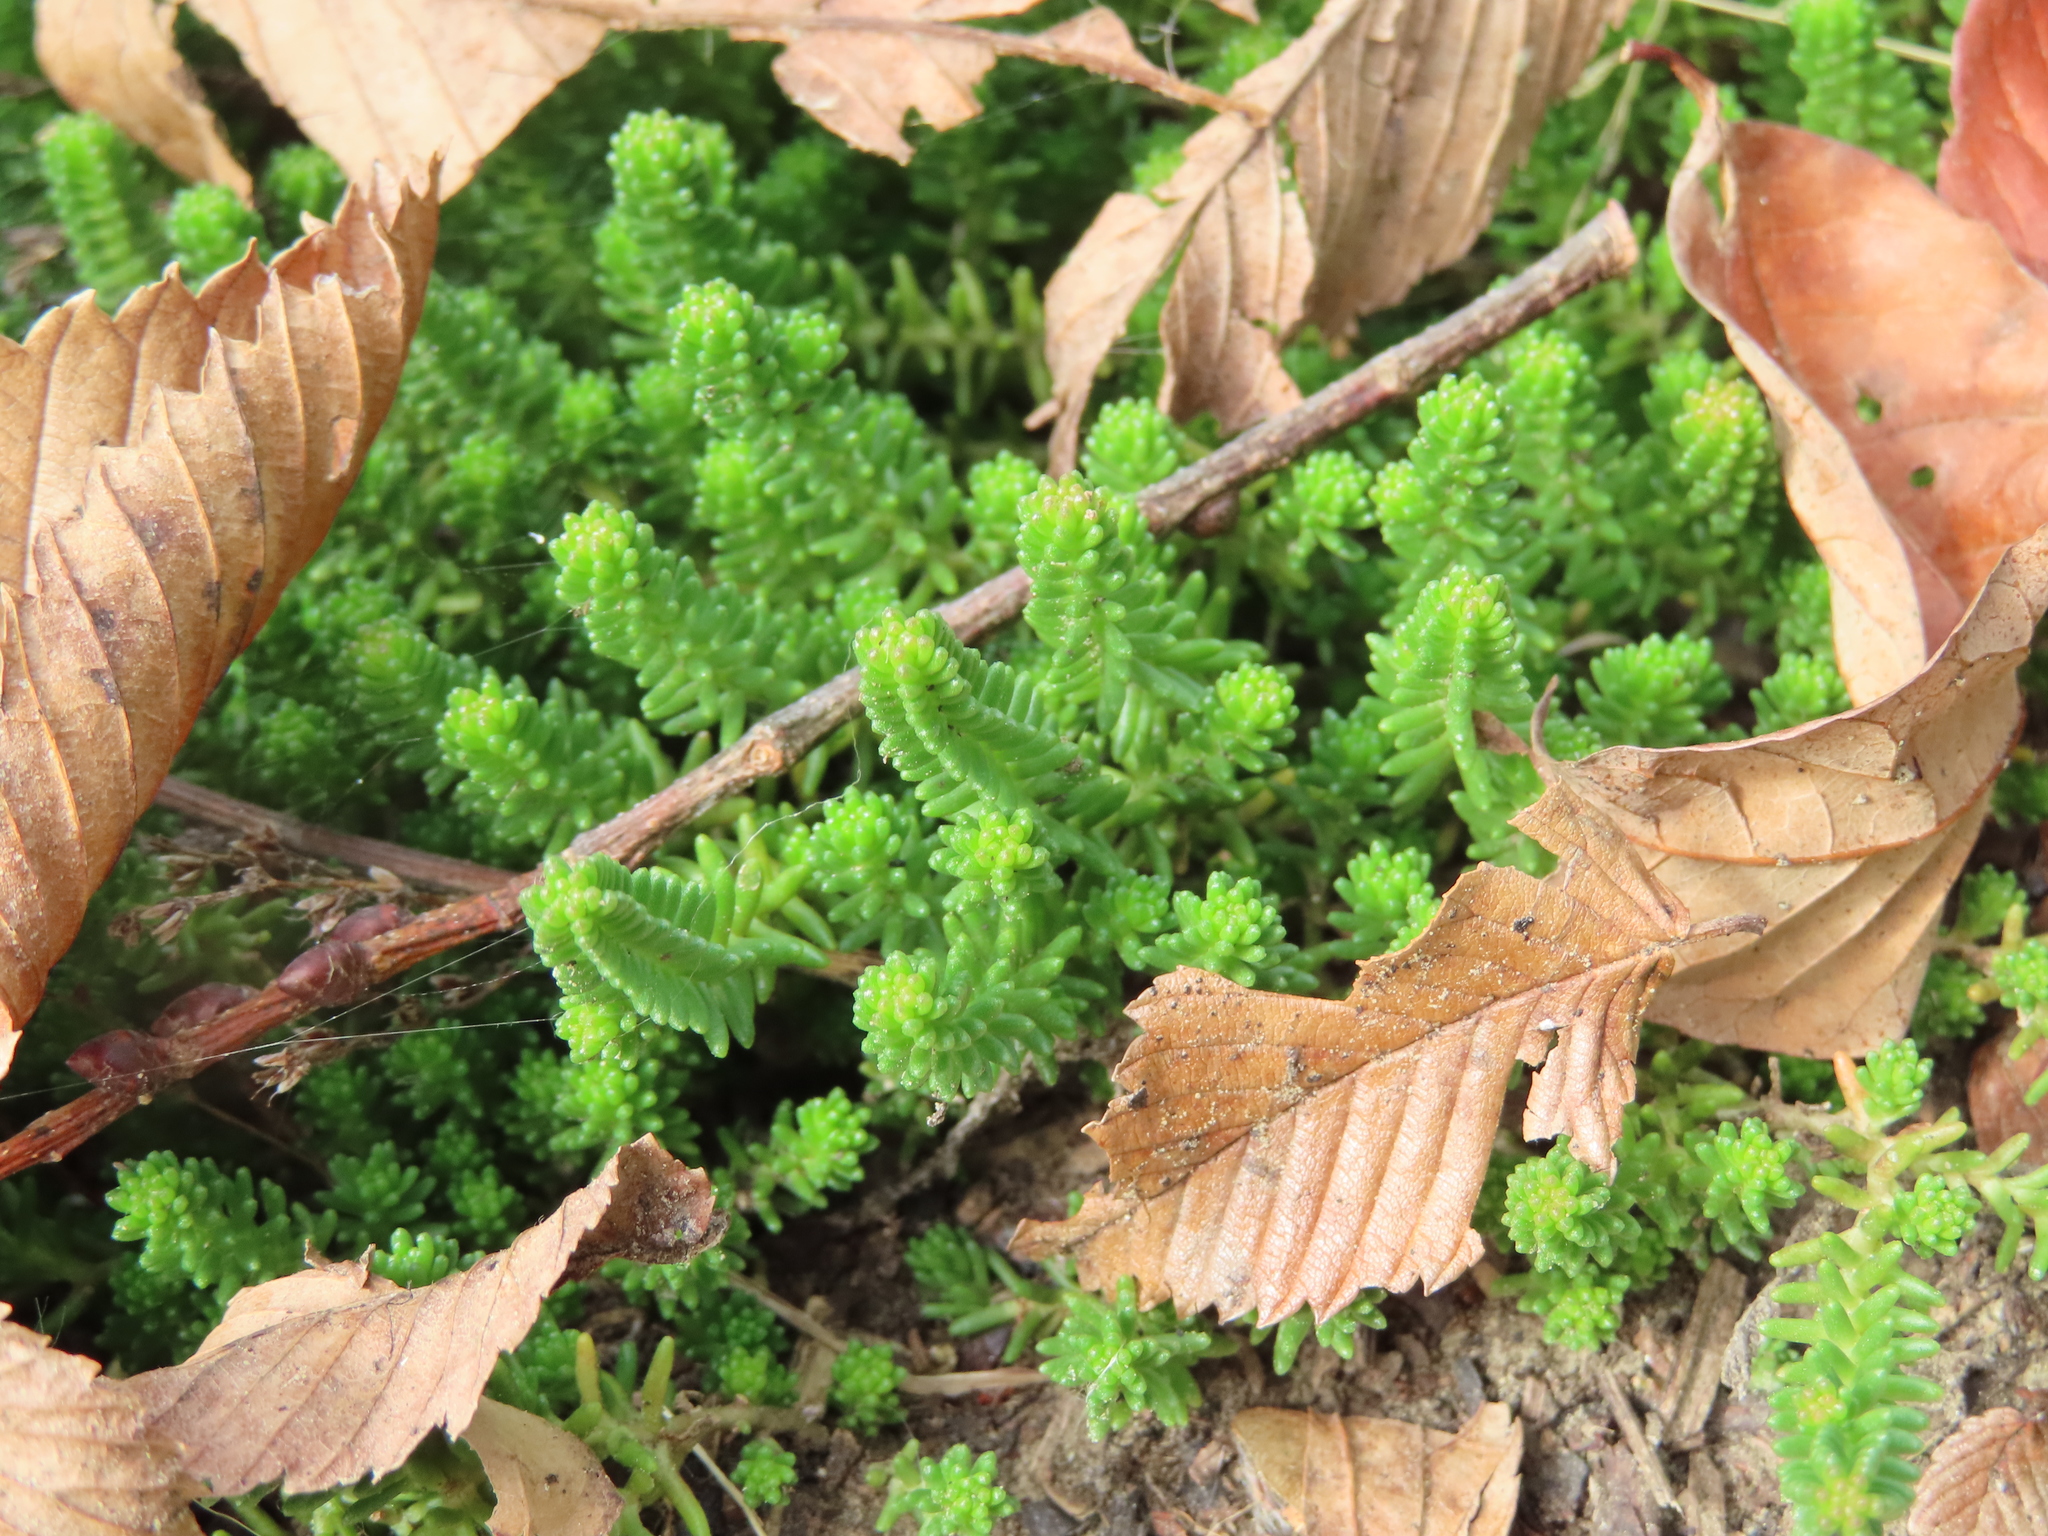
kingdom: Plantae
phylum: Tracheophyta
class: Magnoliopsida
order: Saxifragales
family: Crassulaceae
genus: Sedum
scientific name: Sedum sexangulare
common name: Tasteless stonecrop
